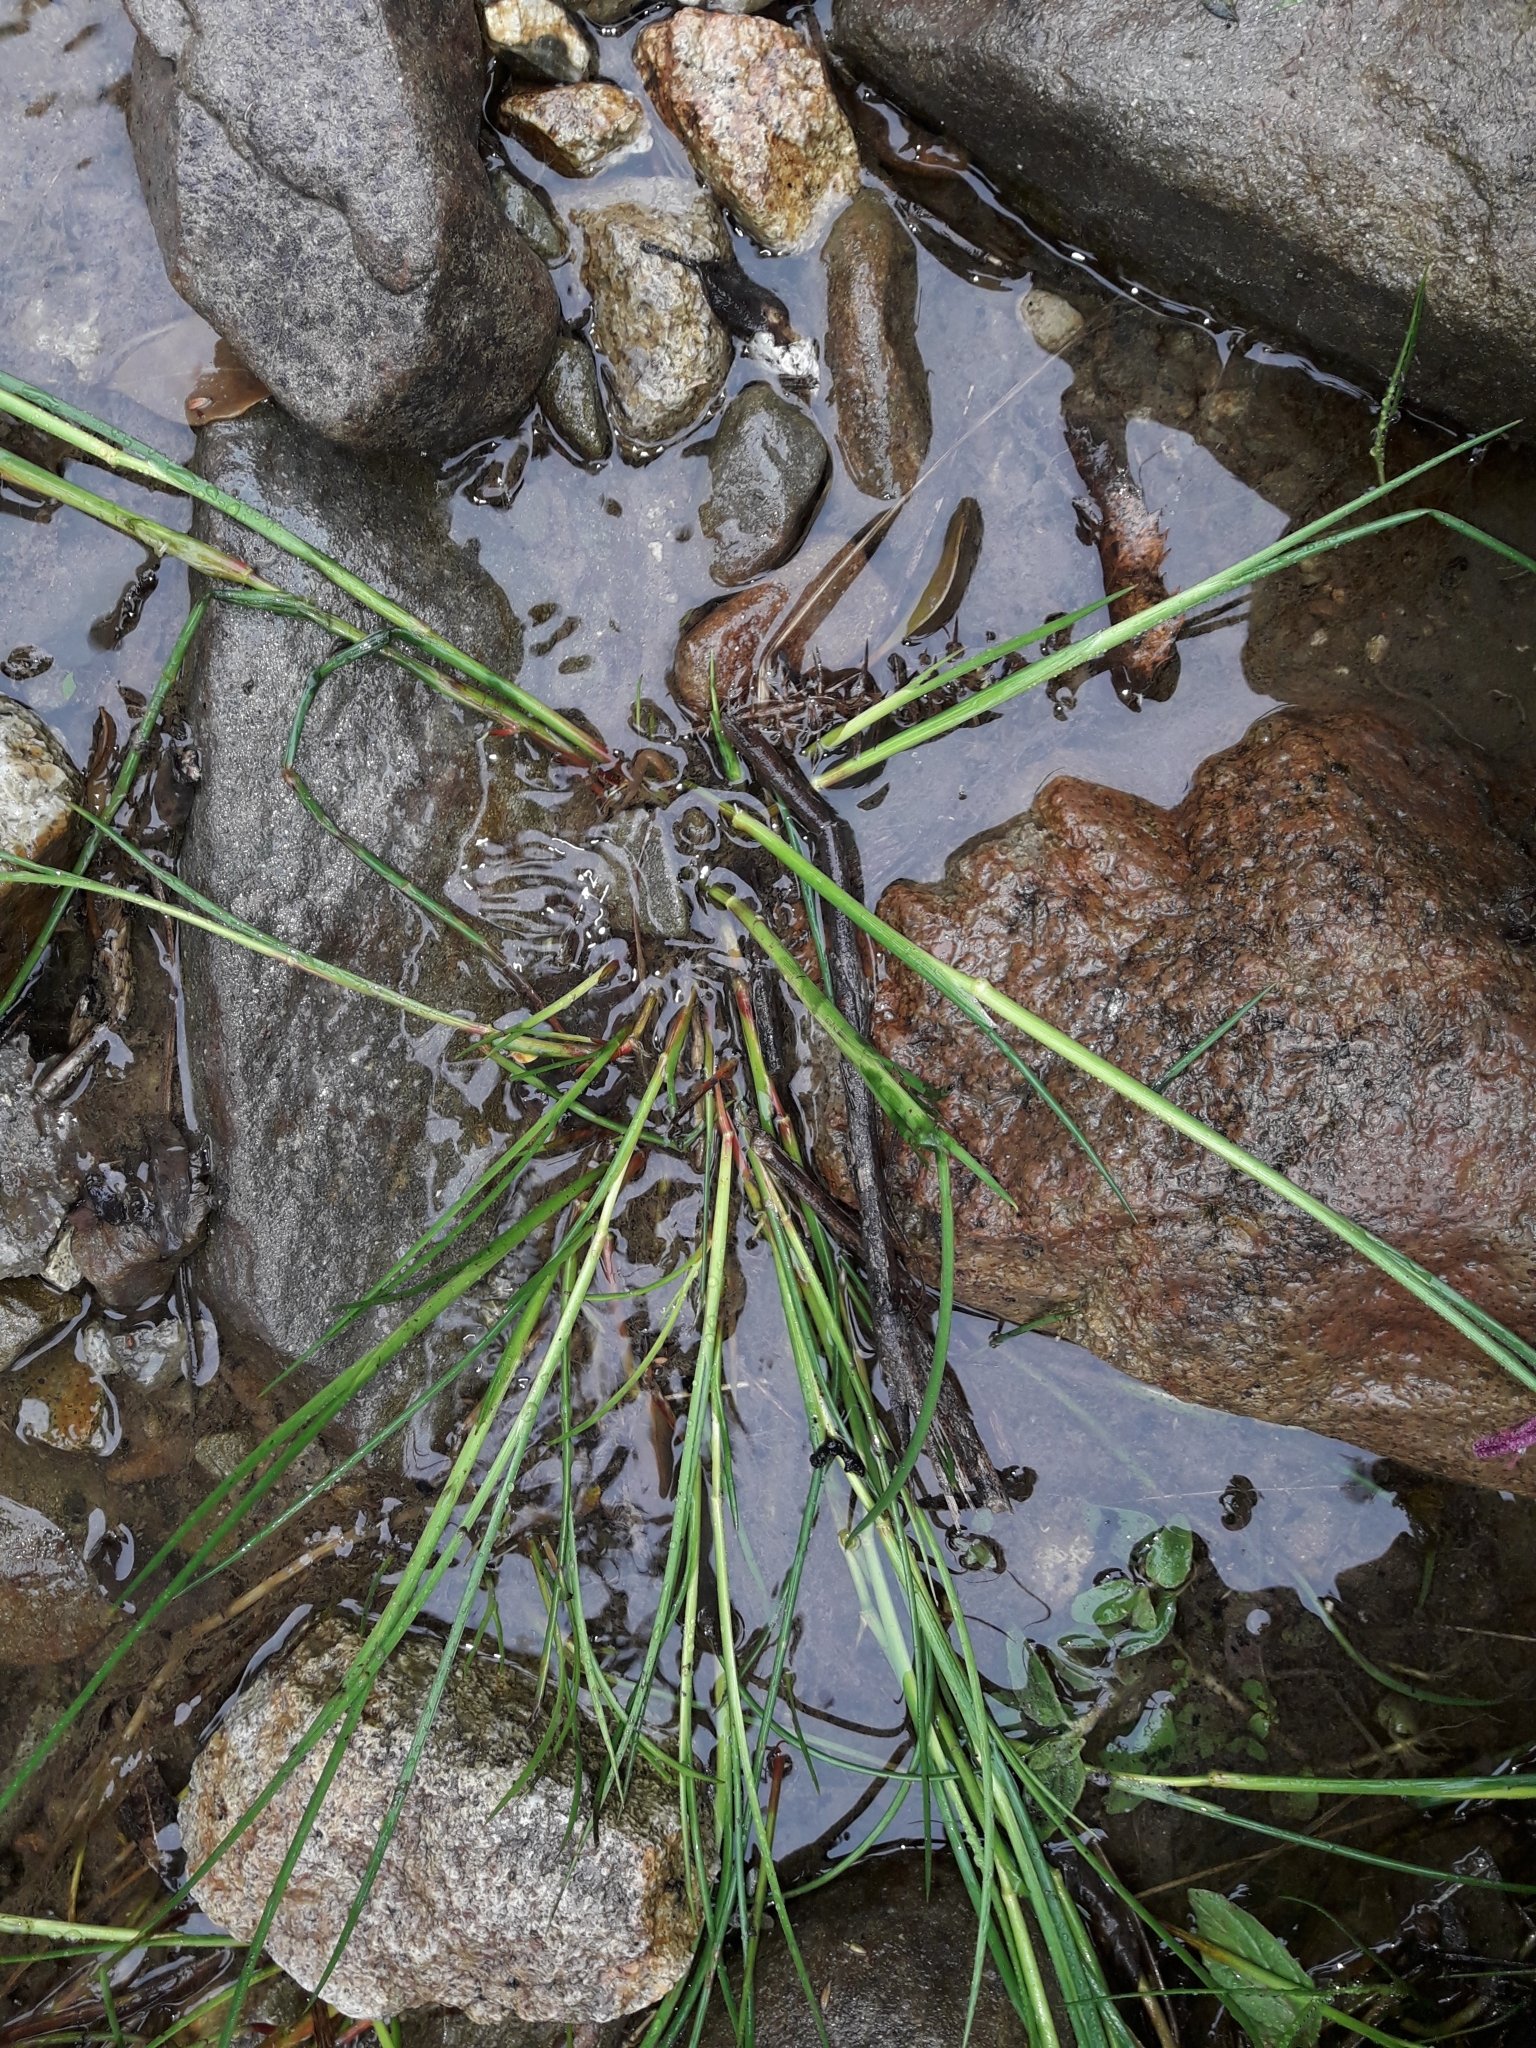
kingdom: Plantae
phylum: Tracheophyta
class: Liliopsida
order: Poales
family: Juncaceae
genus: Juncus
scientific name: Juncus articulatus
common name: Jointed rush
